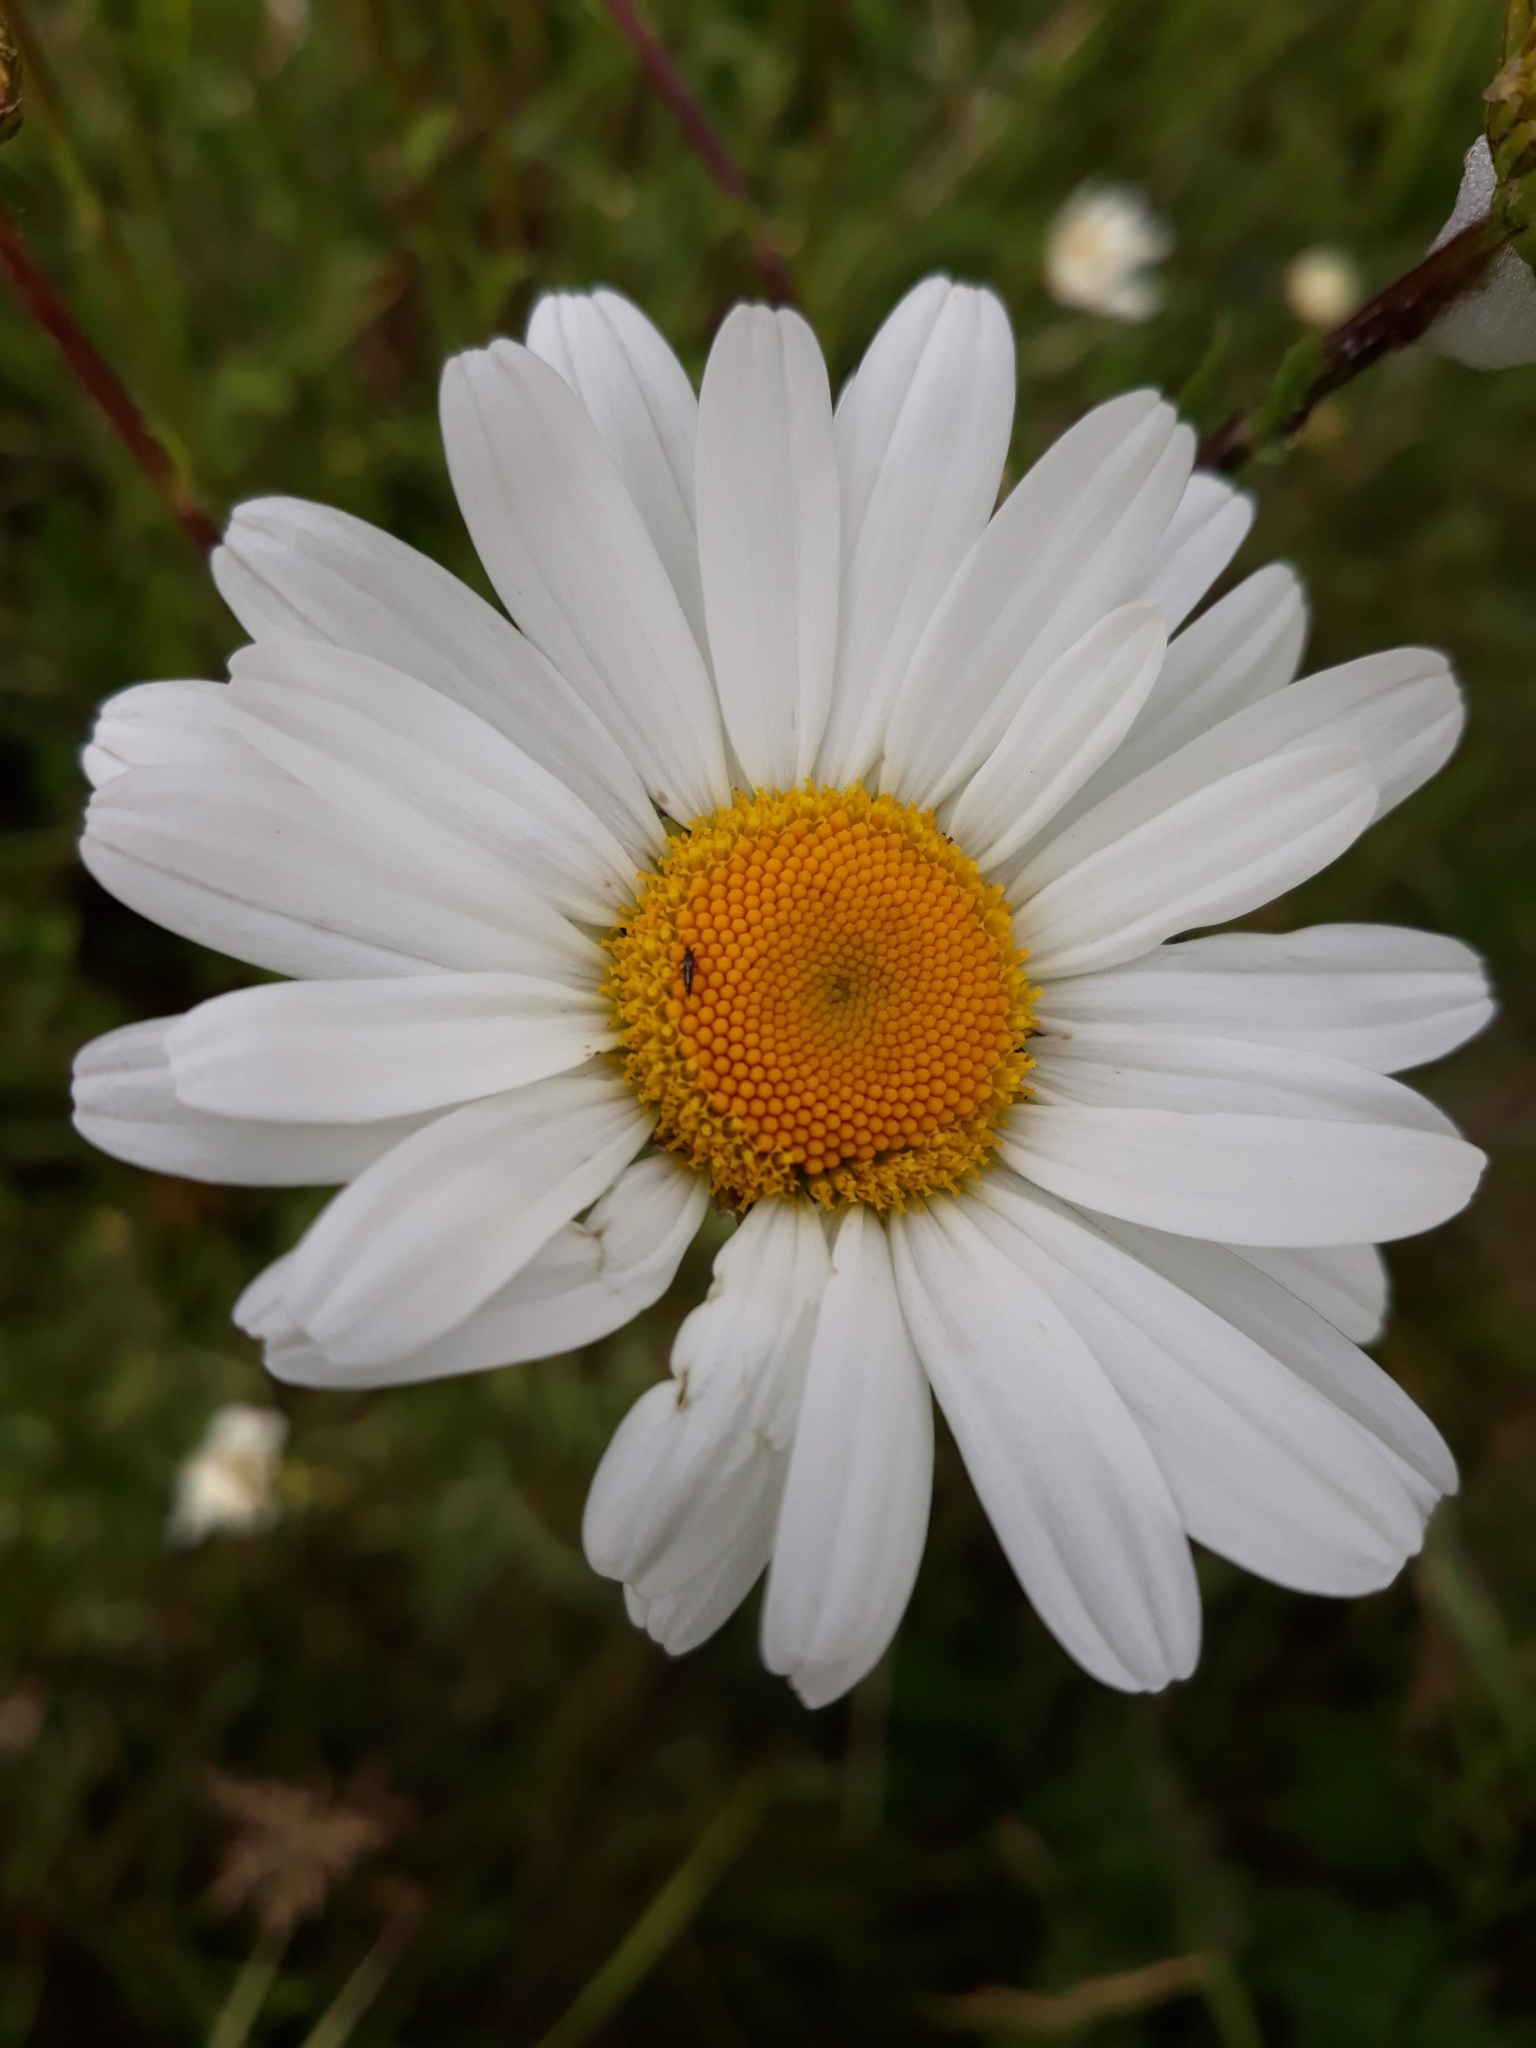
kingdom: Plantae
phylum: Tracheophyta
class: Magnoliopsida
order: Asterales
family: Asteraceae
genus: Leucanthemum
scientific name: Leucanthemum vulgare
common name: Oxeye daisy
